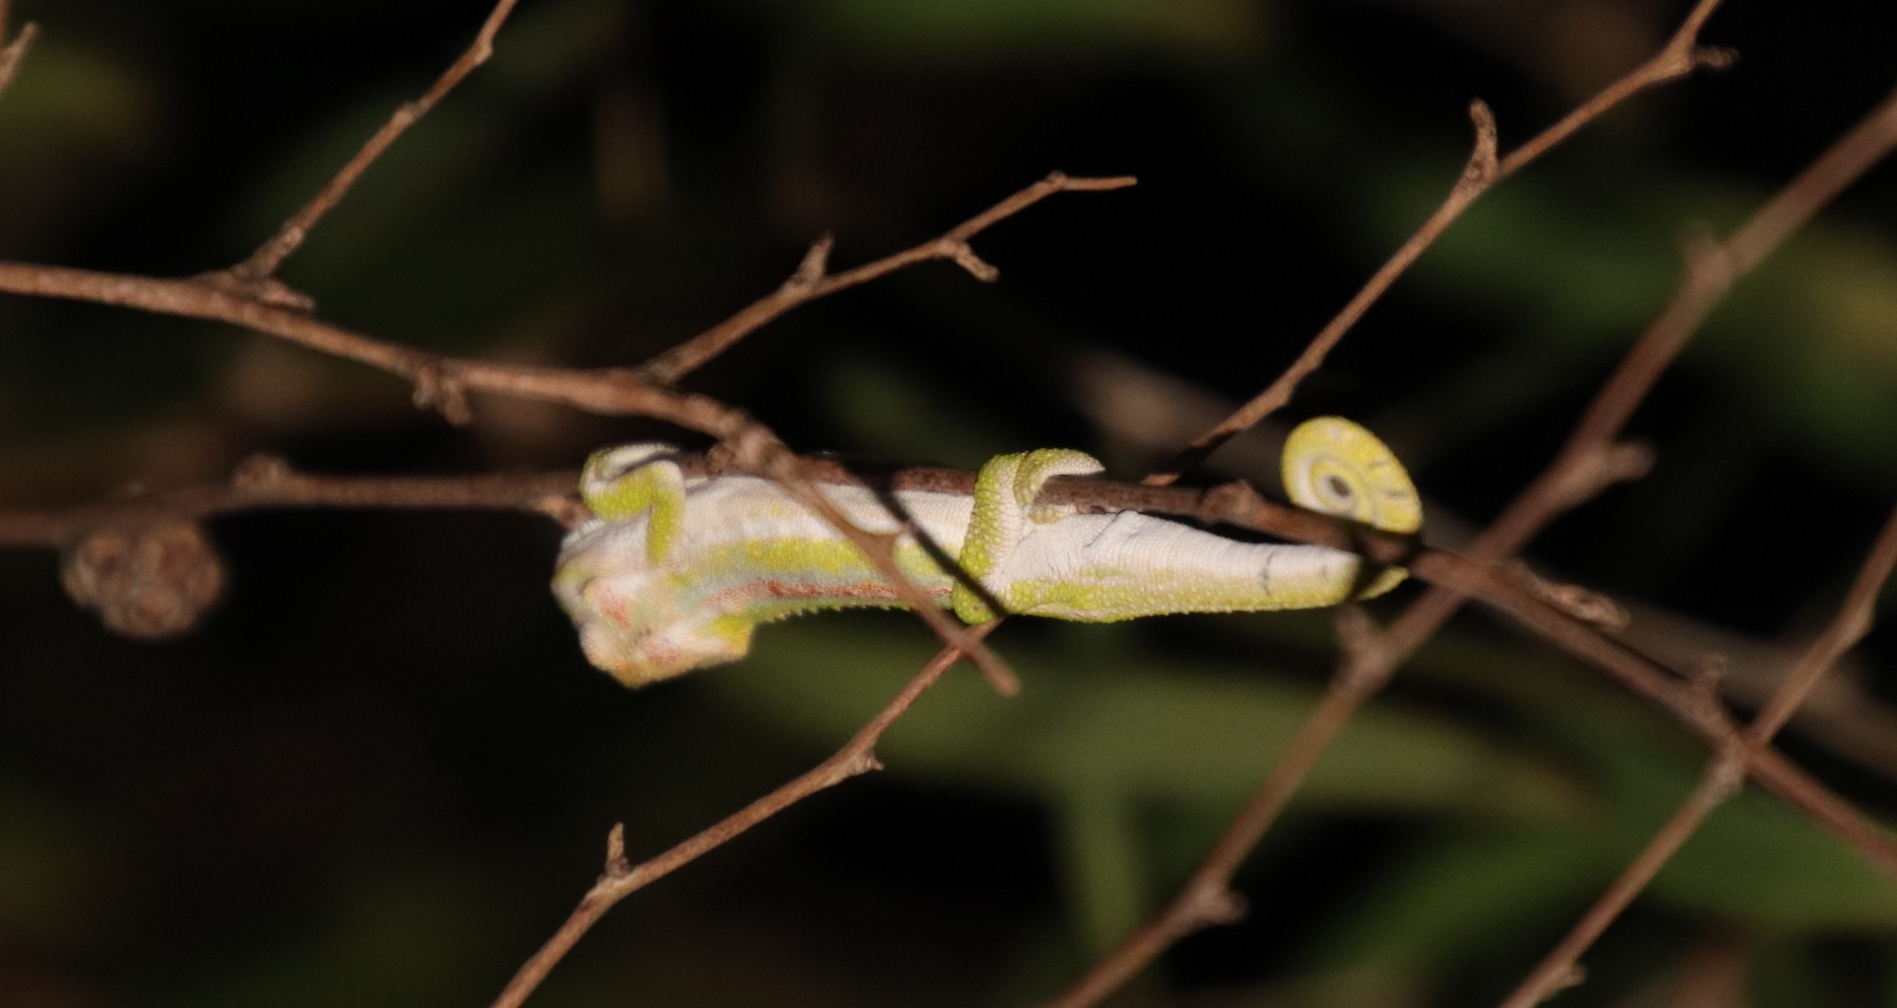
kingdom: Animalia
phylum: Chordata
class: Squamata
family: Chamaeleonidae
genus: Bradypodion
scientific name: Bradypodion pumilum
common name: Cape dwarf chameleon
